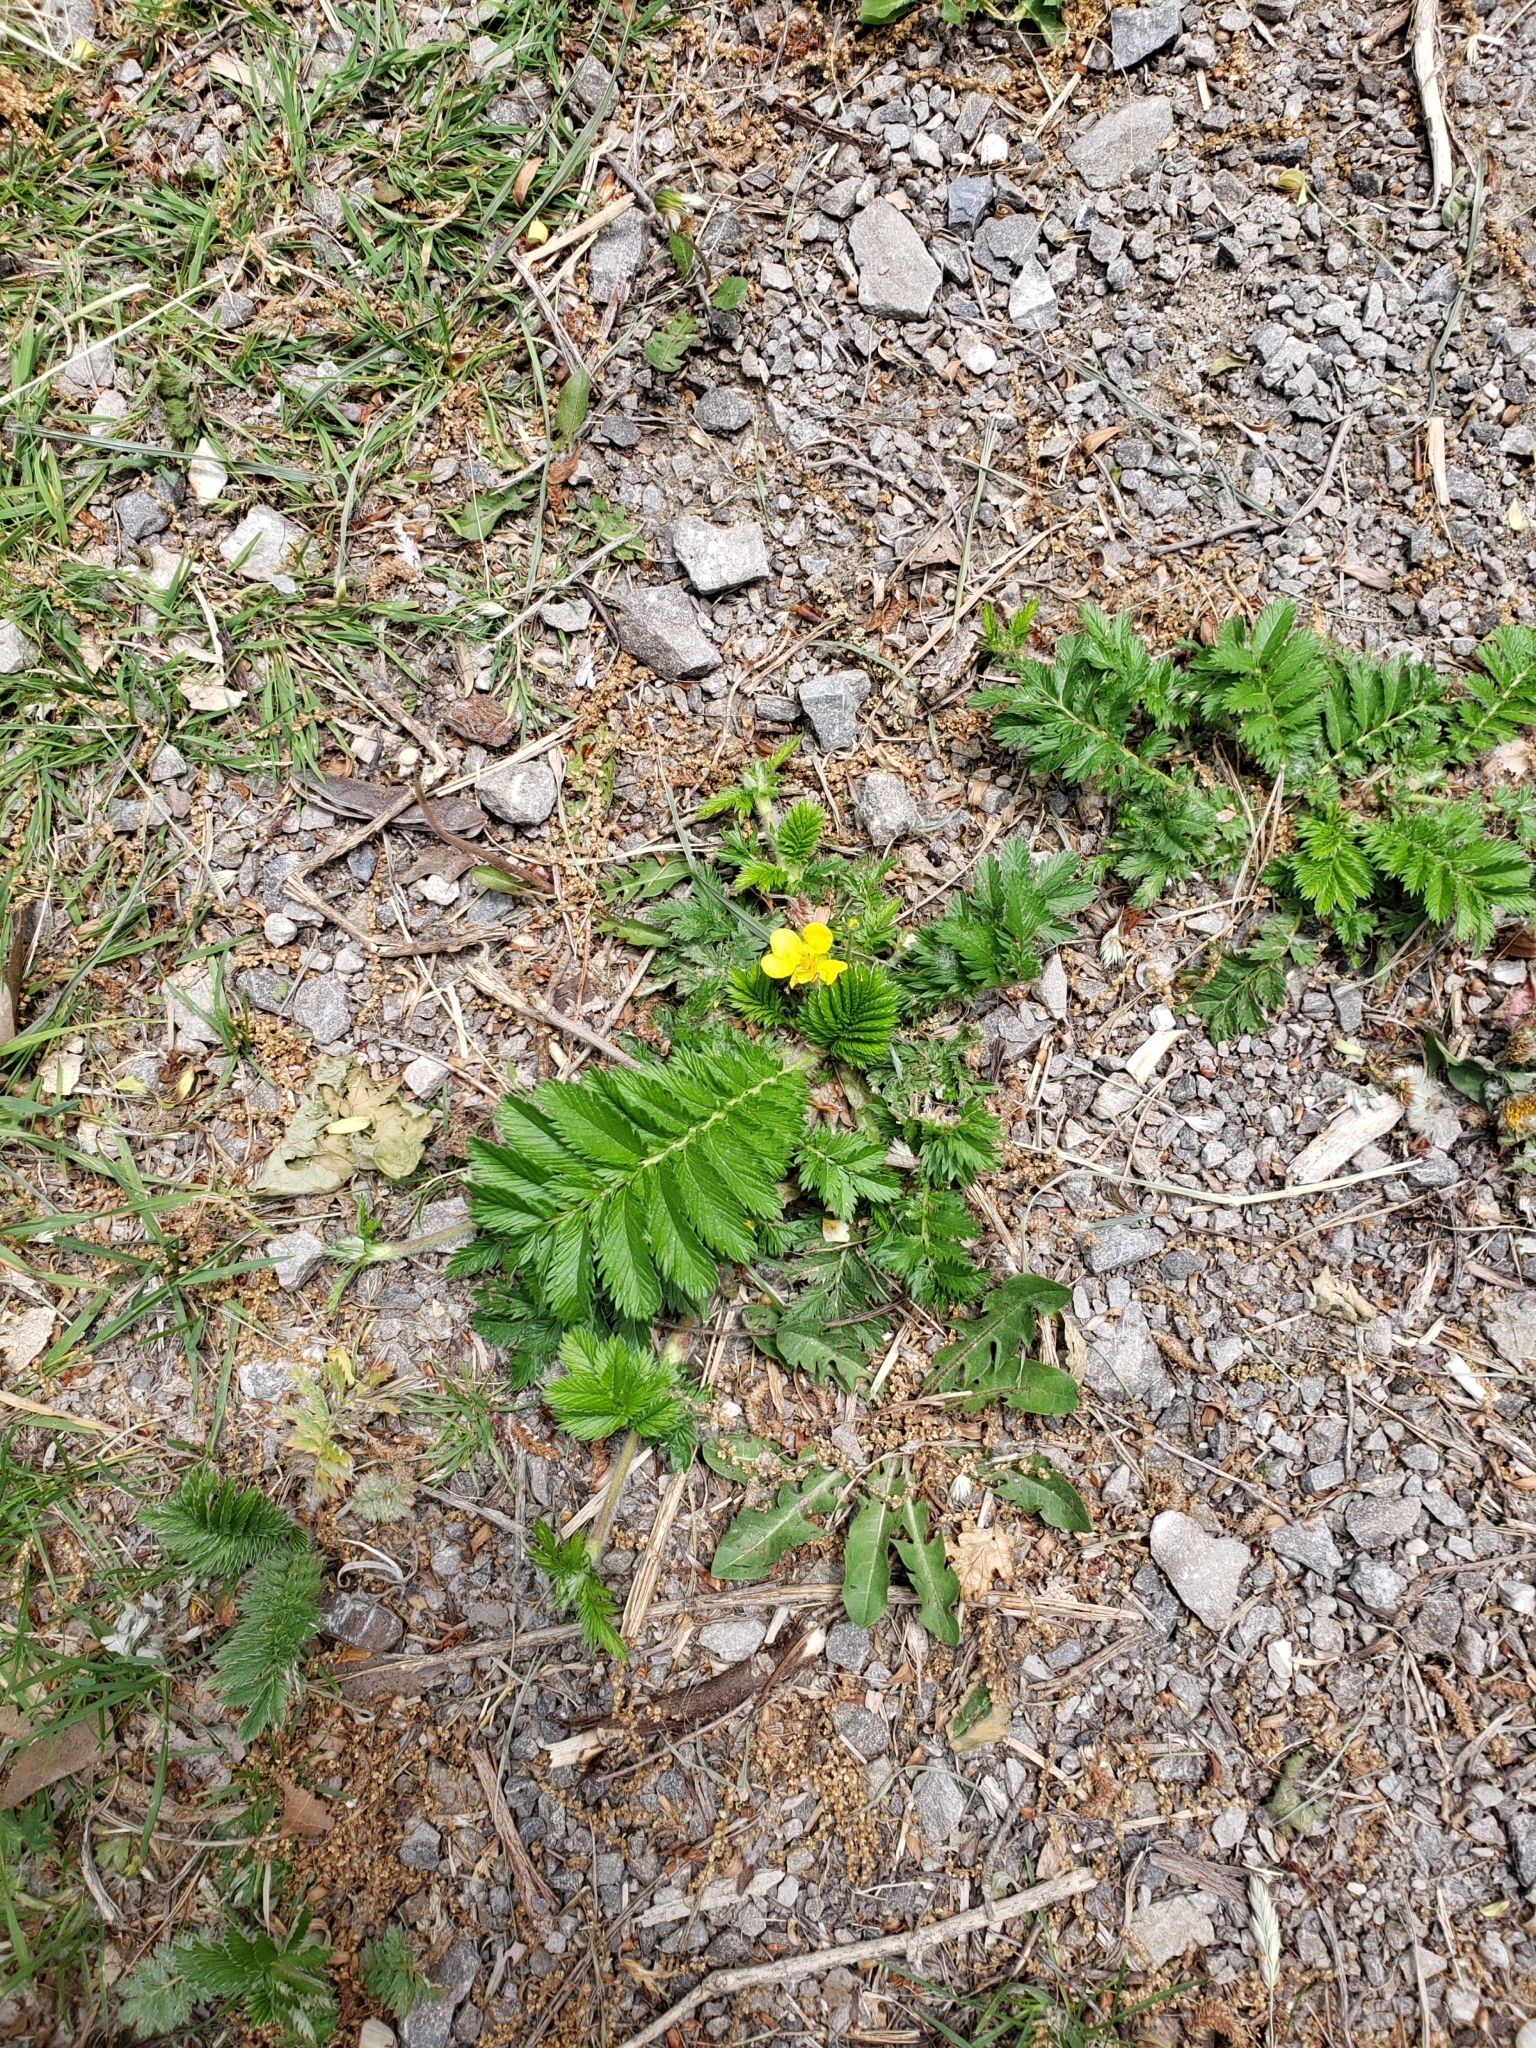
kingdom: Plantae
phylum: Tracheophyta
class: Magnoliopsida
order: Rosales
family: Rosaceae
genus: Argentina
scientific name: Argentina anserina
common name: Common silverweed
